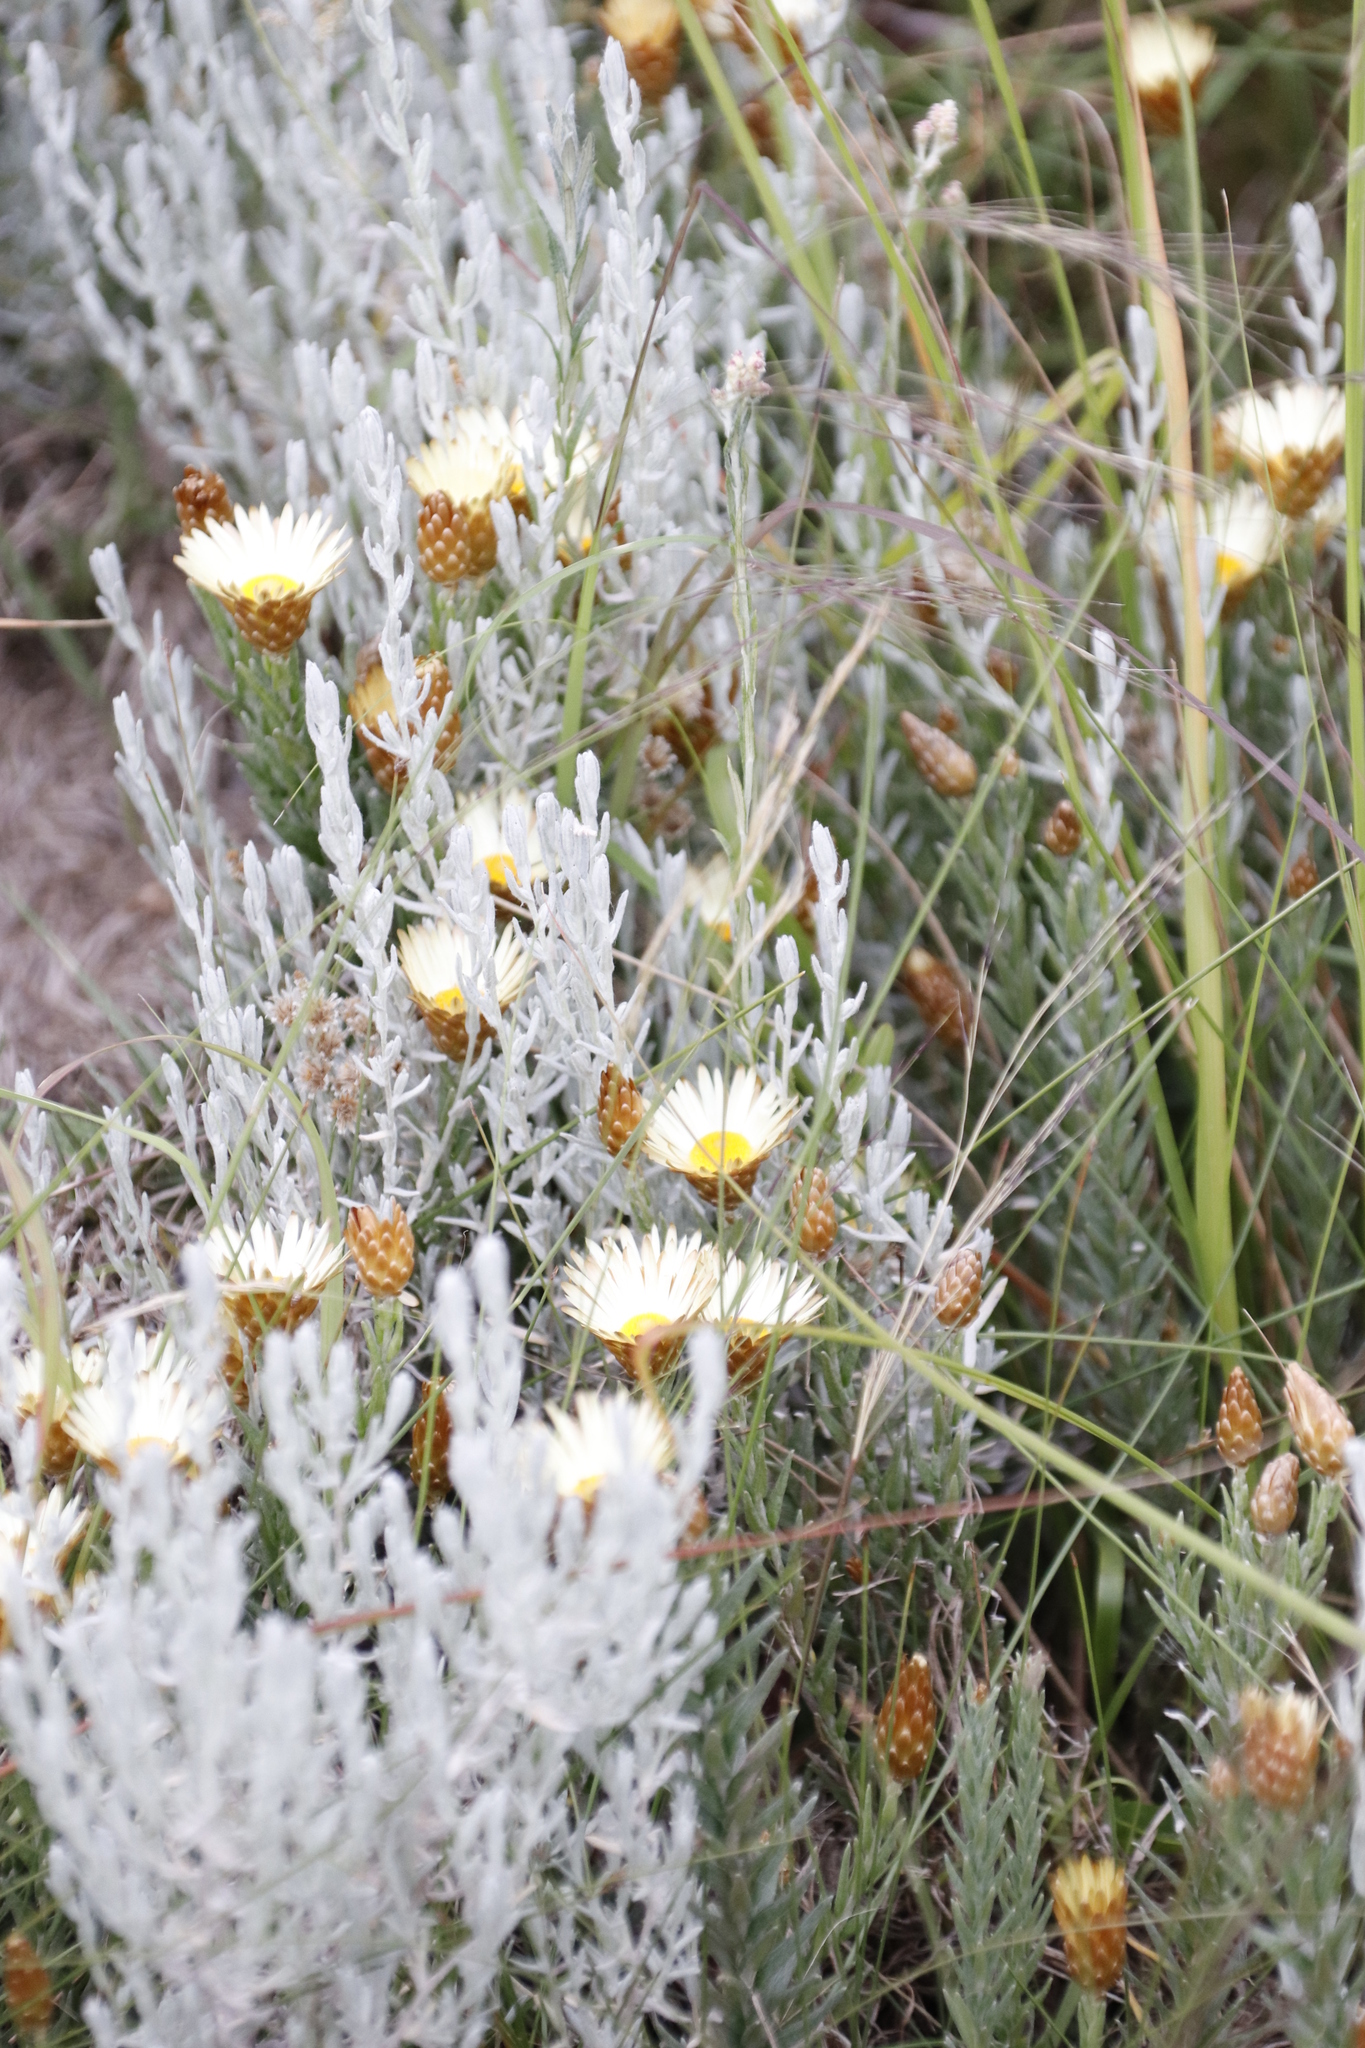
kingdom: Plantae
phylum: Tracheophyta
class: Magnoliopsida
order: Asterales
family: Asteraceae
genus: Helichrysum
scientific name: Helichrysum herbaceum
